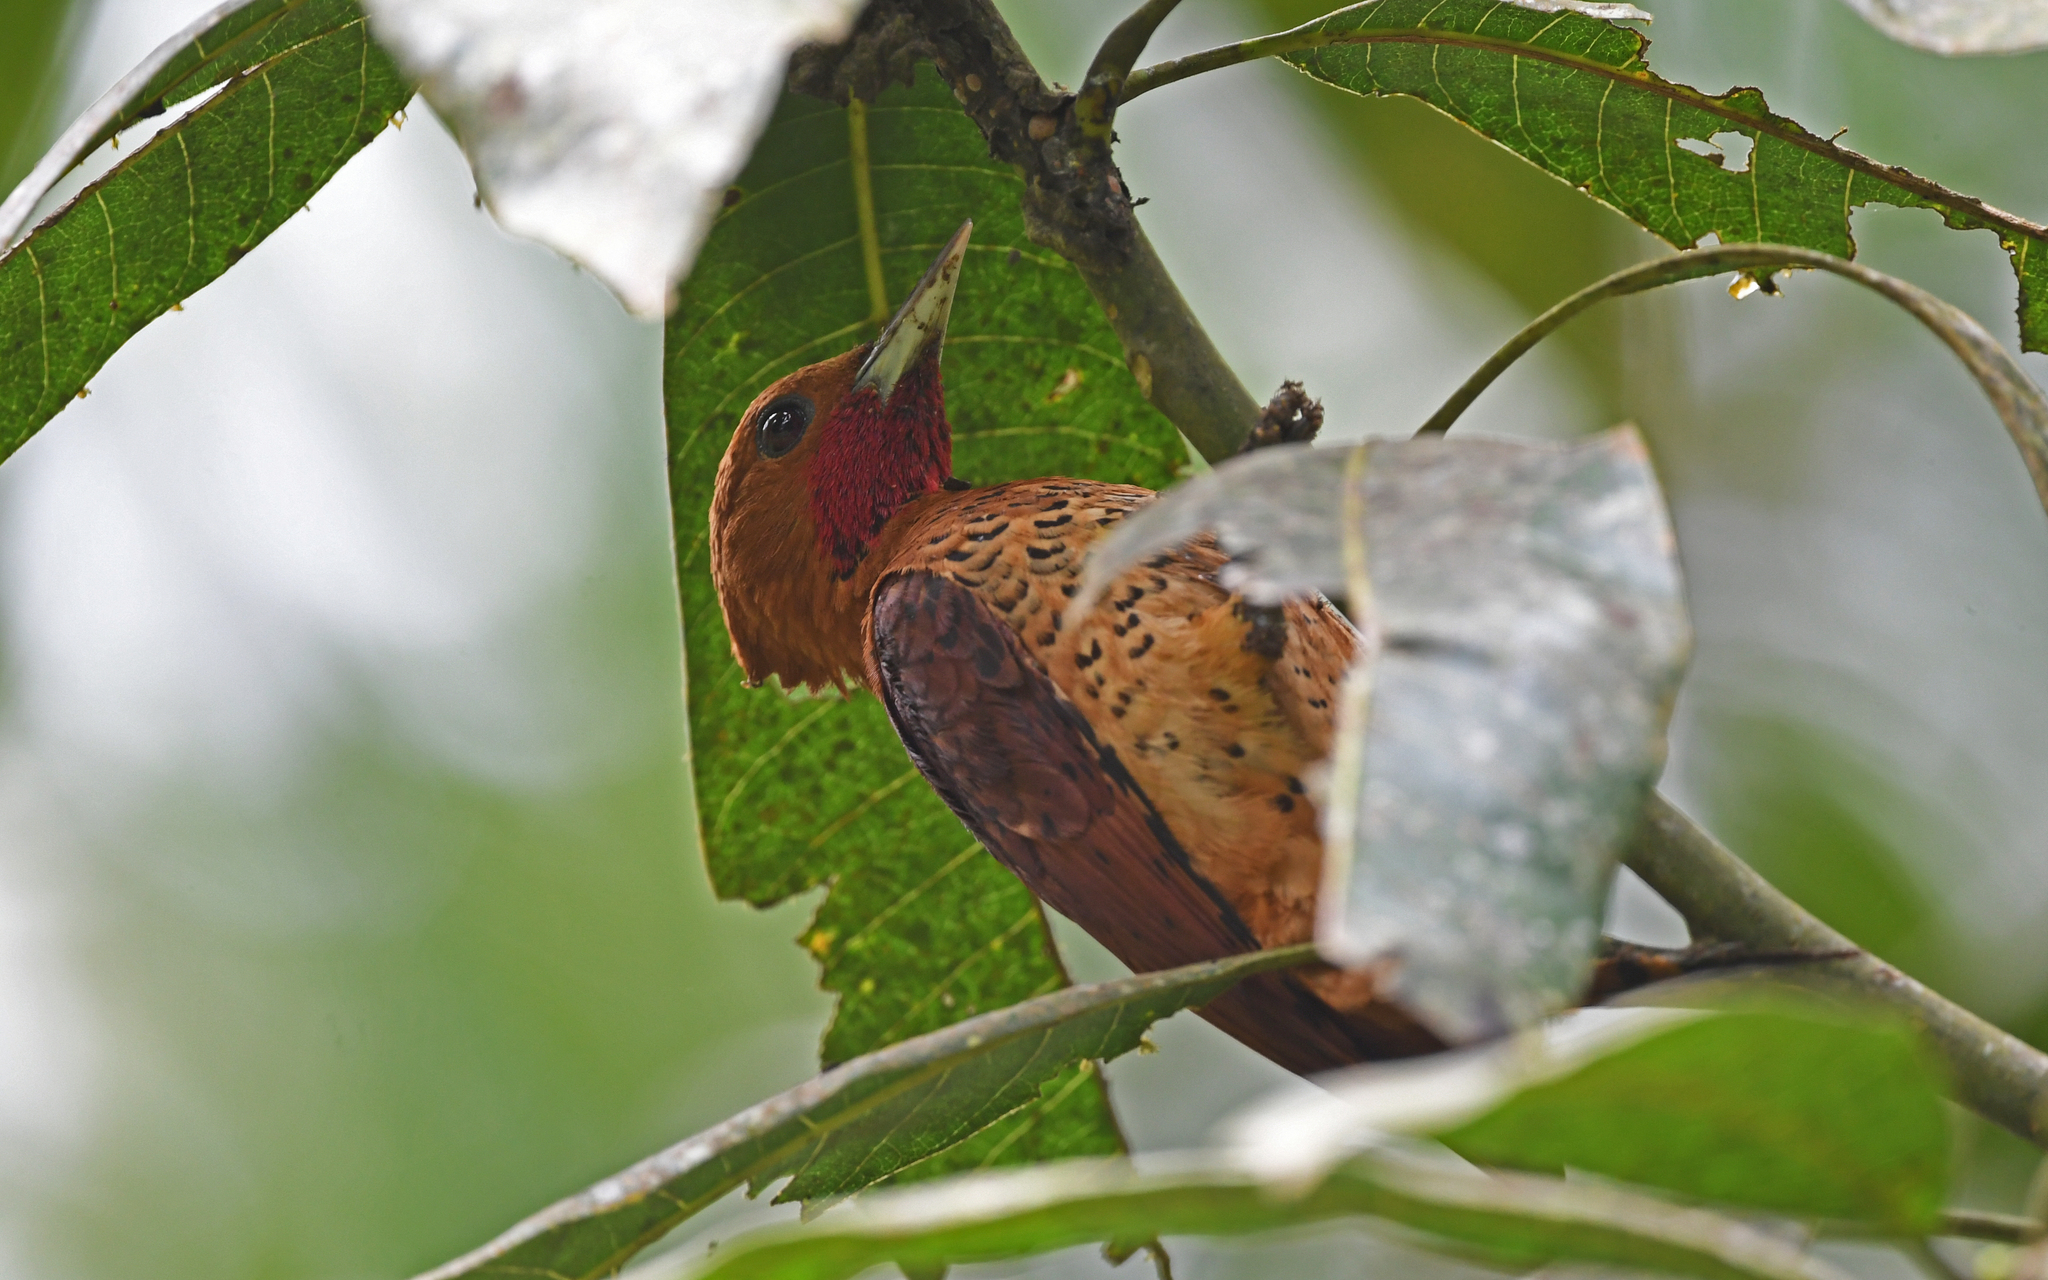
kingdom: Animalia
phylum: Chordata
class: Aves
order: Piciformes
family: Picidae
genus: Celeus
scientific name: Celeus loricatus
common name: Cinnamon woodpecker
